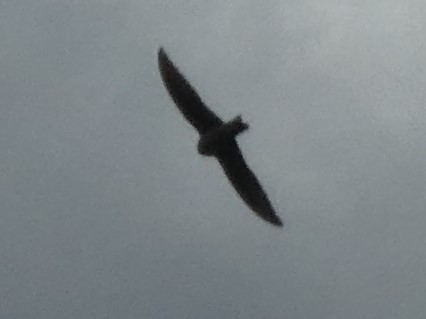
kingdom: Animalia
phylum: Chordata
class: Aves
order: Apodiformes
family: Apodidae
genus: Apus
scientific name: Apus apus
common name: Common swift
